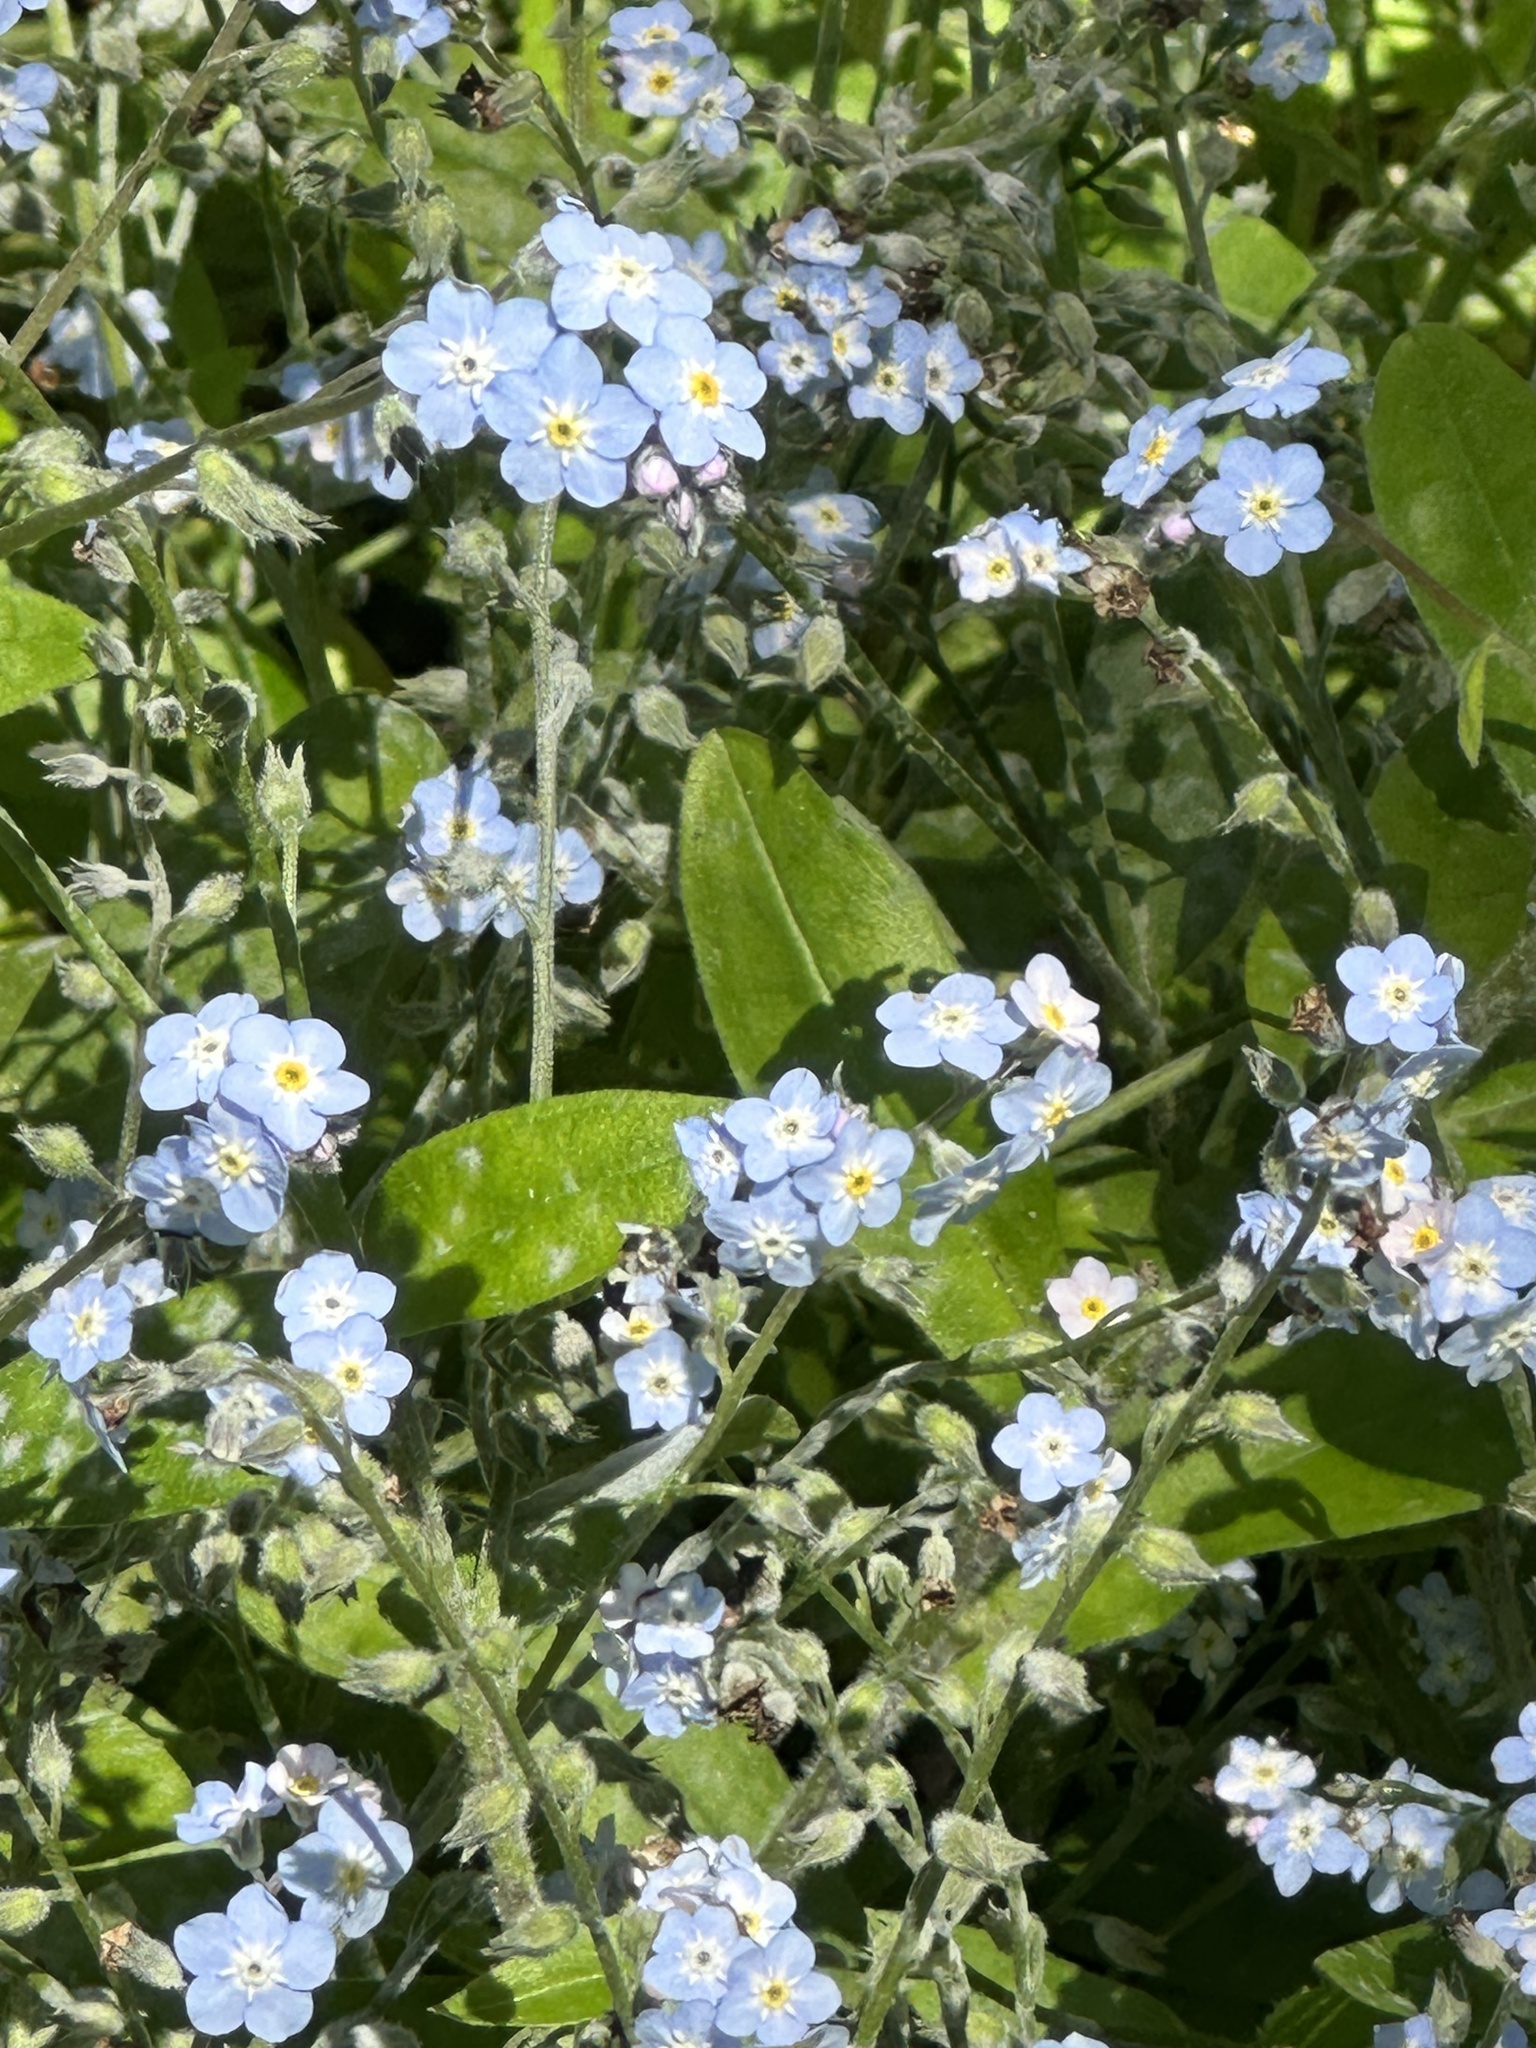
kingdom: Plantae
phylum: Tracheophyta
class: Magnoliopsida
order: Boraginales
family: Boraginaceae
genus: Myosotis
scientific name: Myosotis latifolia
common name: Broadleaf forget-me-not
